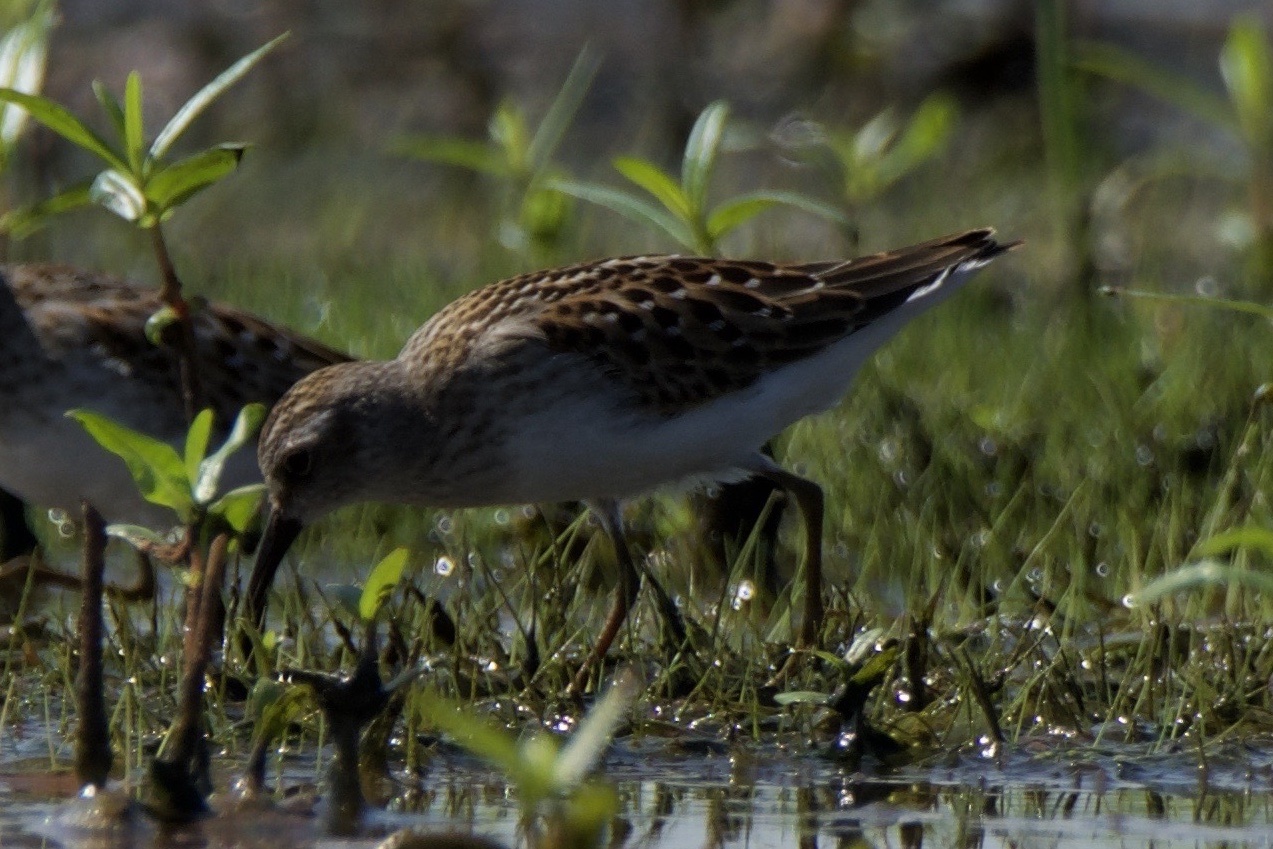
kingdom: Animalia
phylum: Chordata
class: Aves
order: Charadriiformes
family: Scolopacidae
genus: Calidris
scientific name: Calidris minutilla
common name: Least sandpiper
